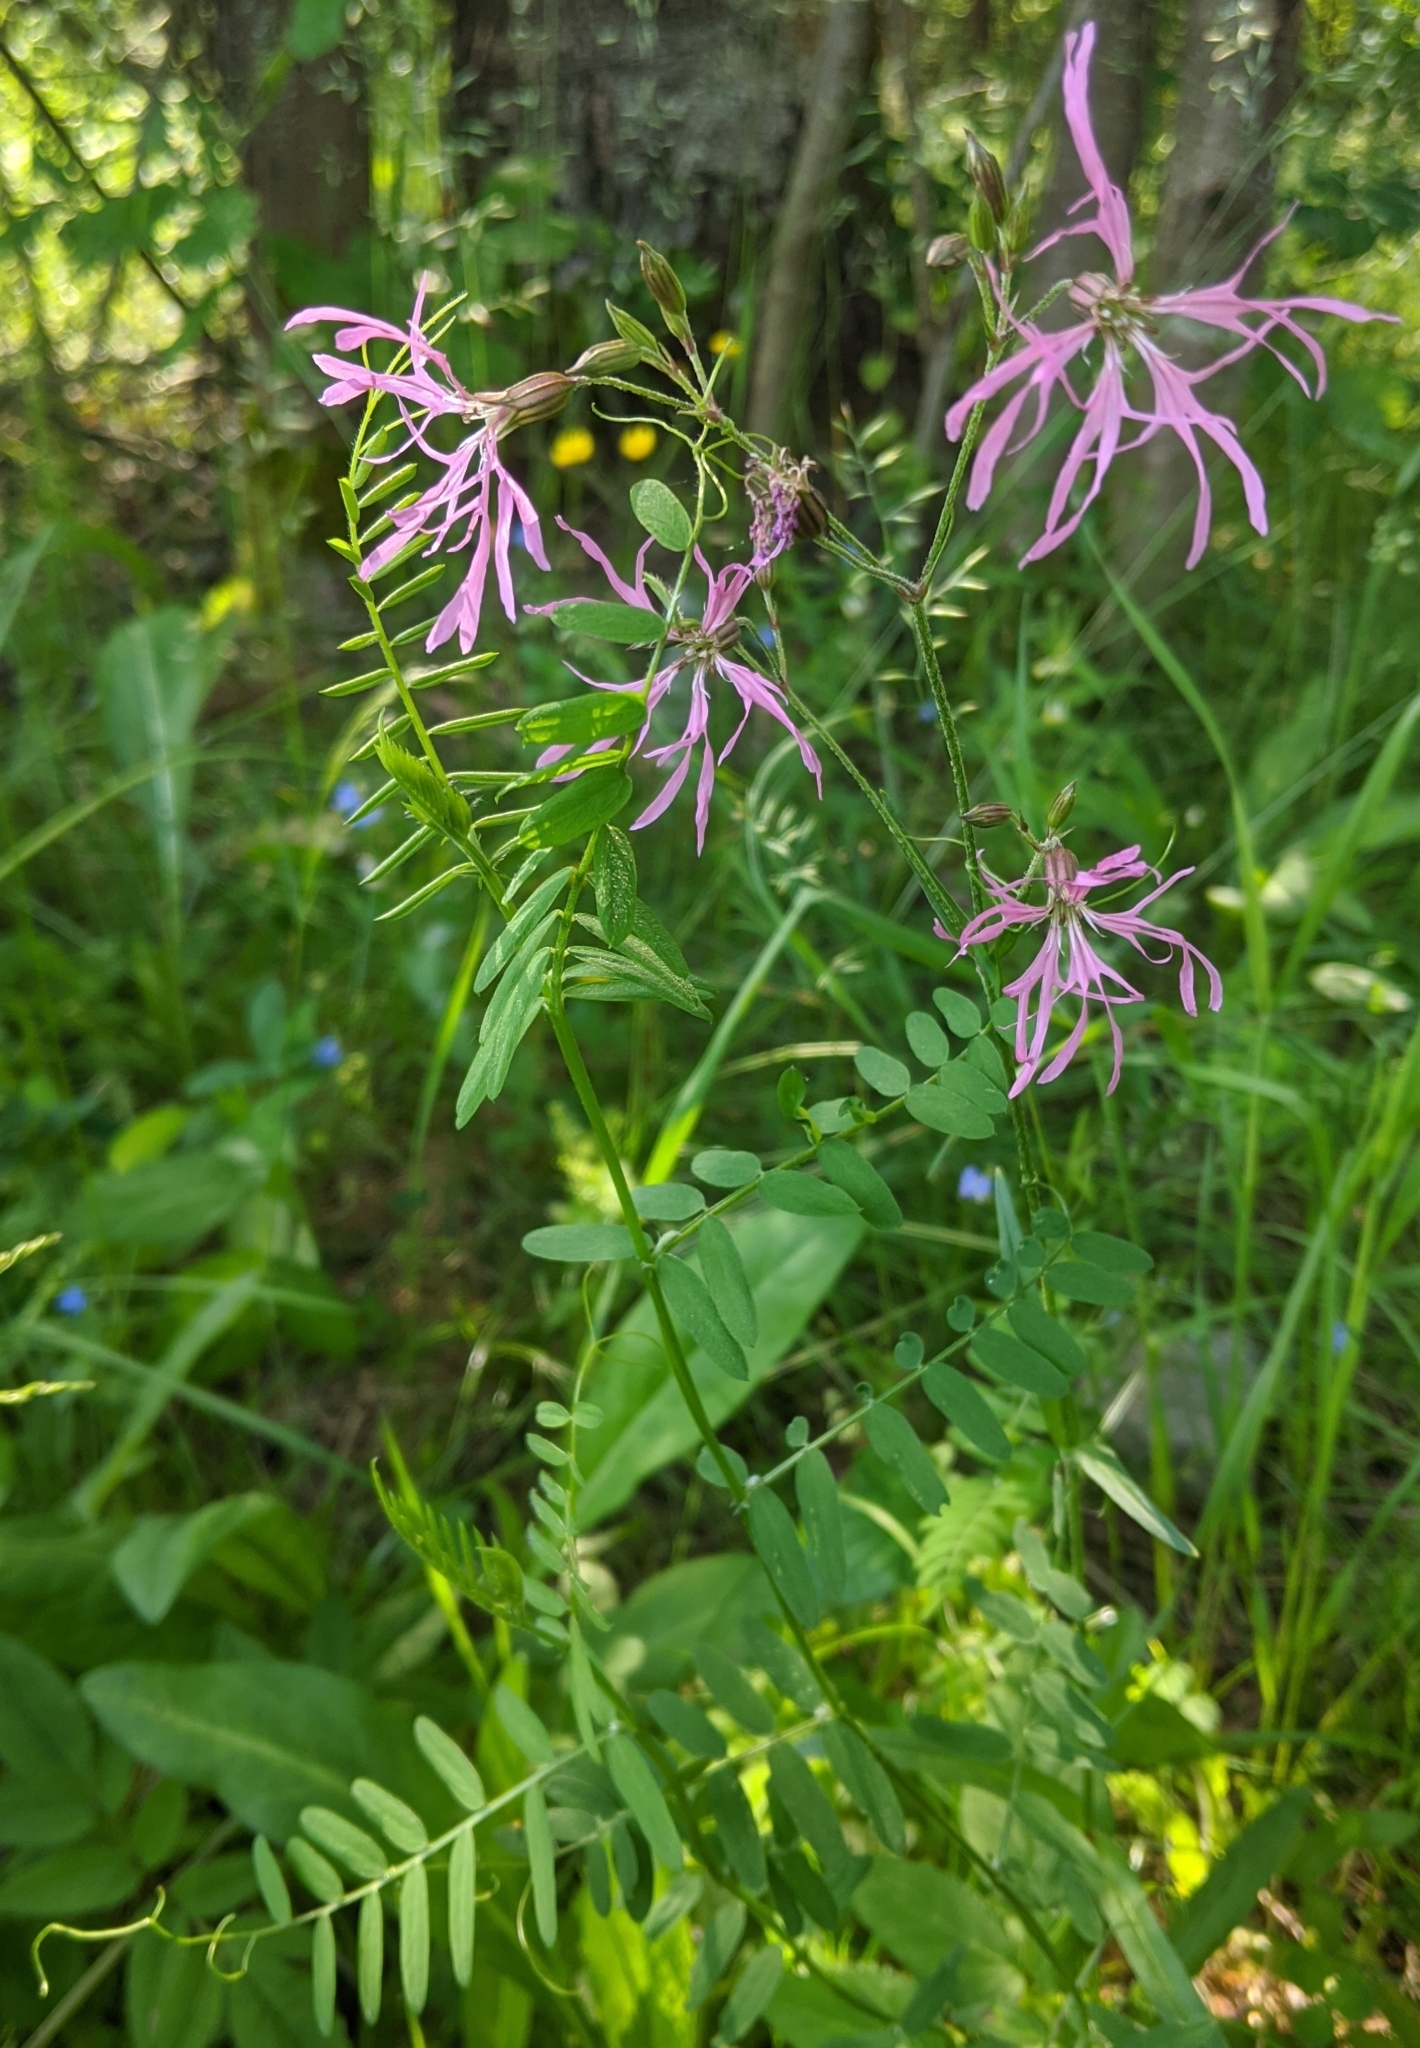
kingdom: Plantae
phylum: Tracheophyta
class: Magnoliopsida
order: Caryophyllales
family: Caryophyllaceae
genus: Silene
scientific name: Silene flos-cuculi
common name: Ragged-robin
